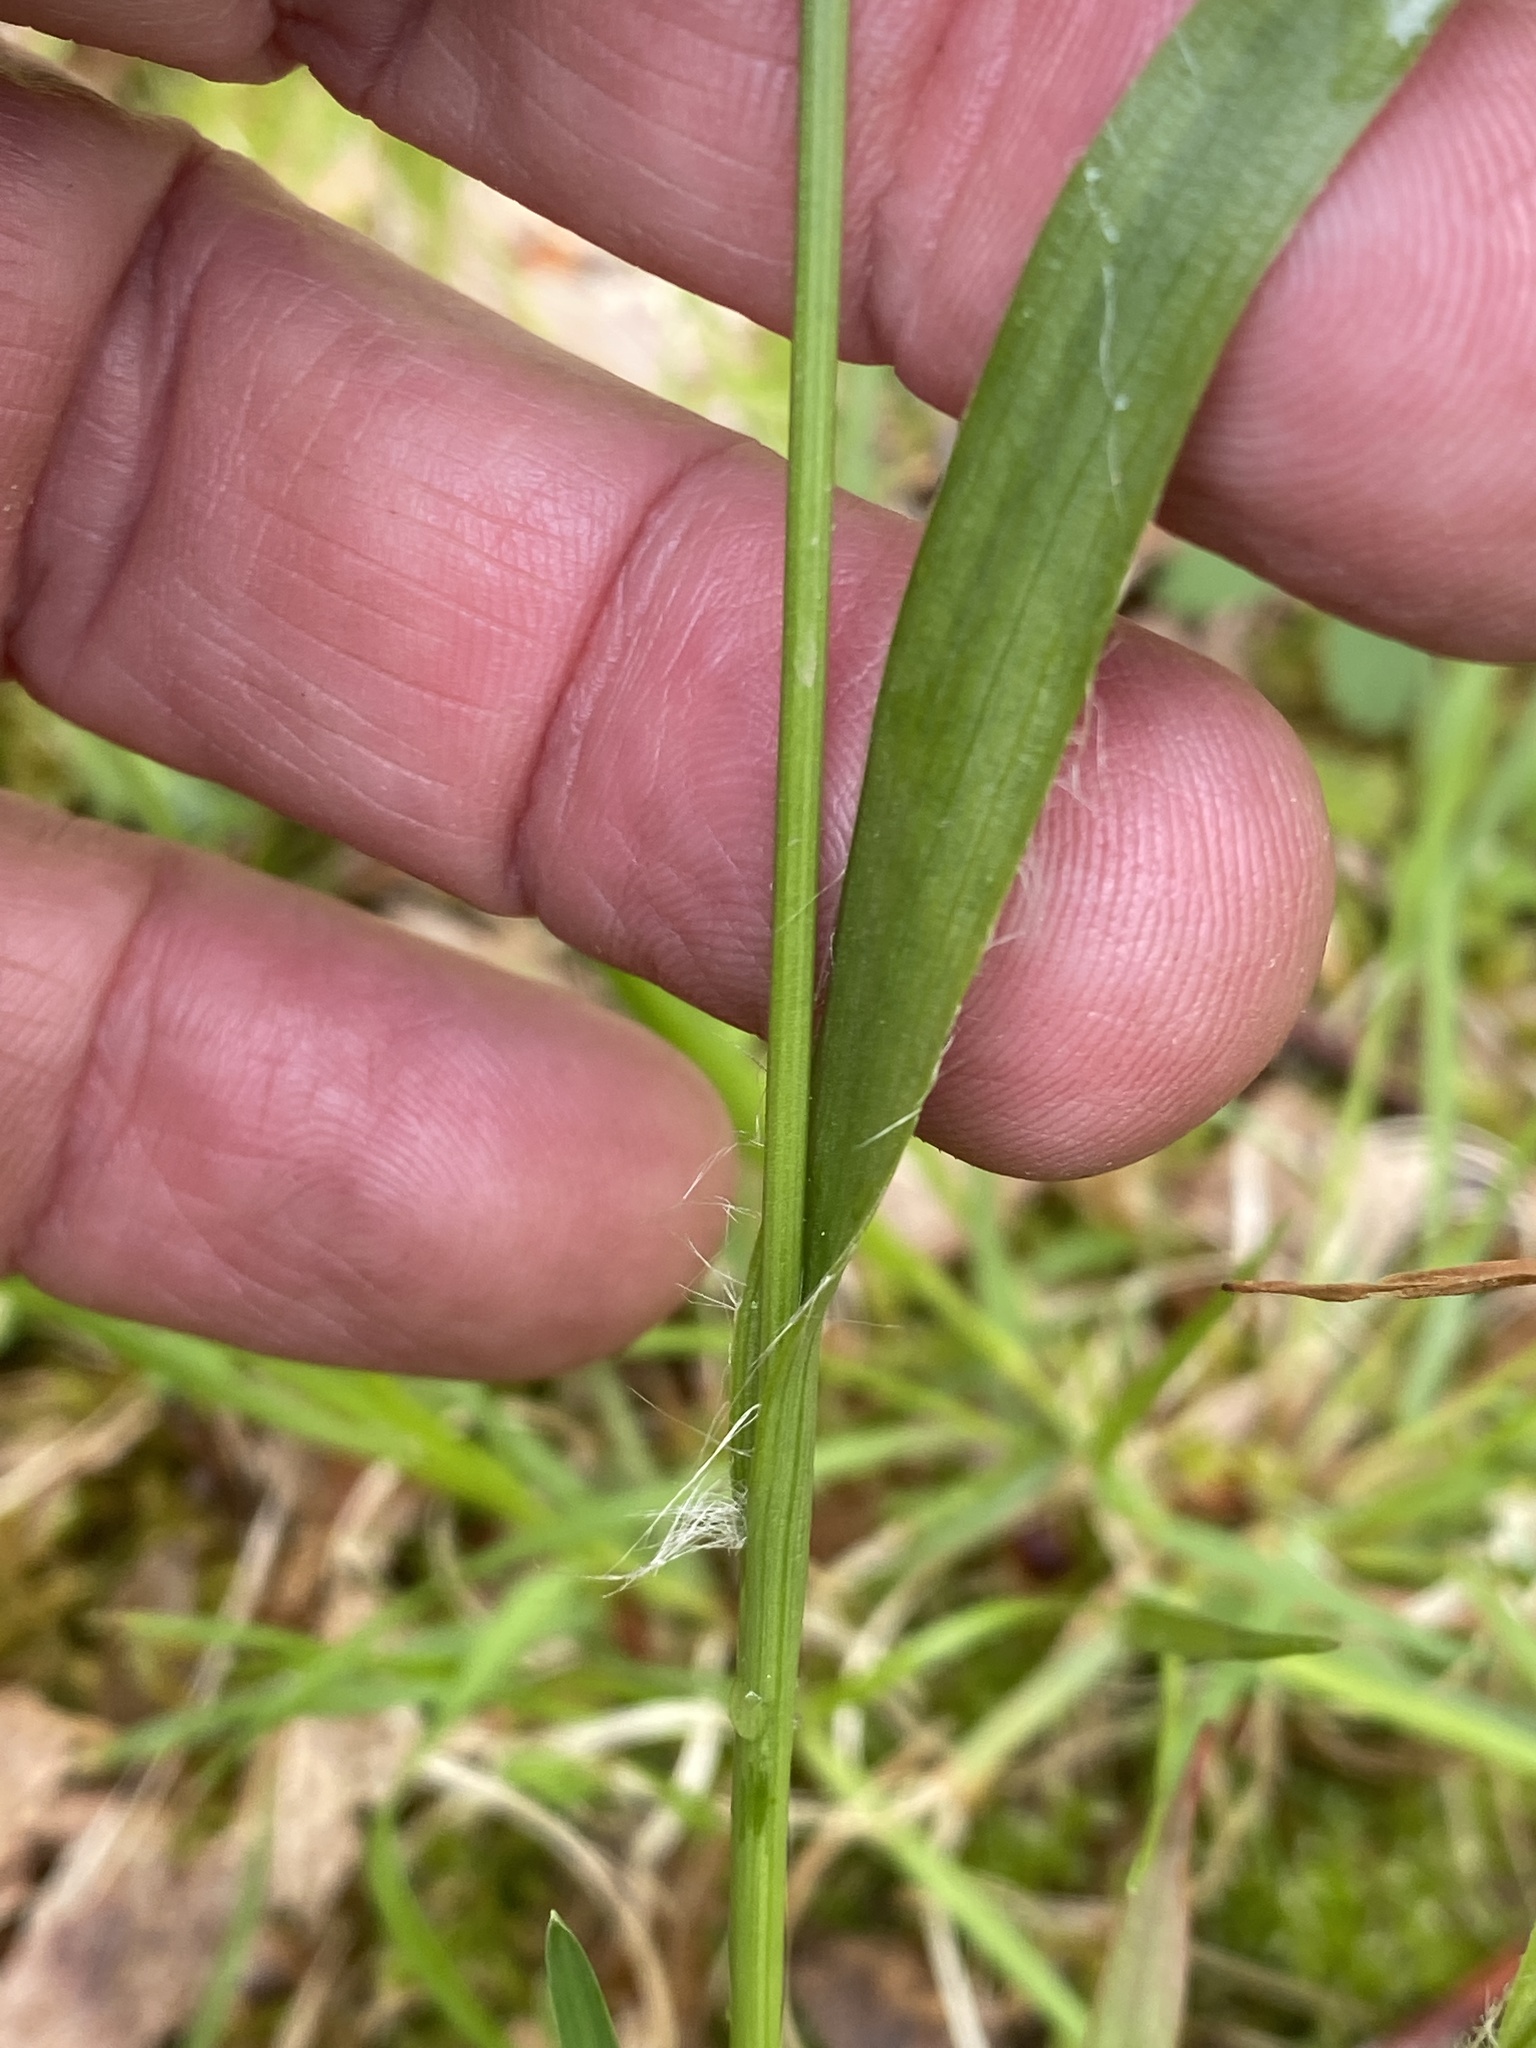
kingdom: Plantae
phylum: Tracheophyta
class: Liliopsida
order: Poales
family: Juncaceae
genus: Luzula
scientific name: Luzula multiflora
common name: Heath wood-rush
